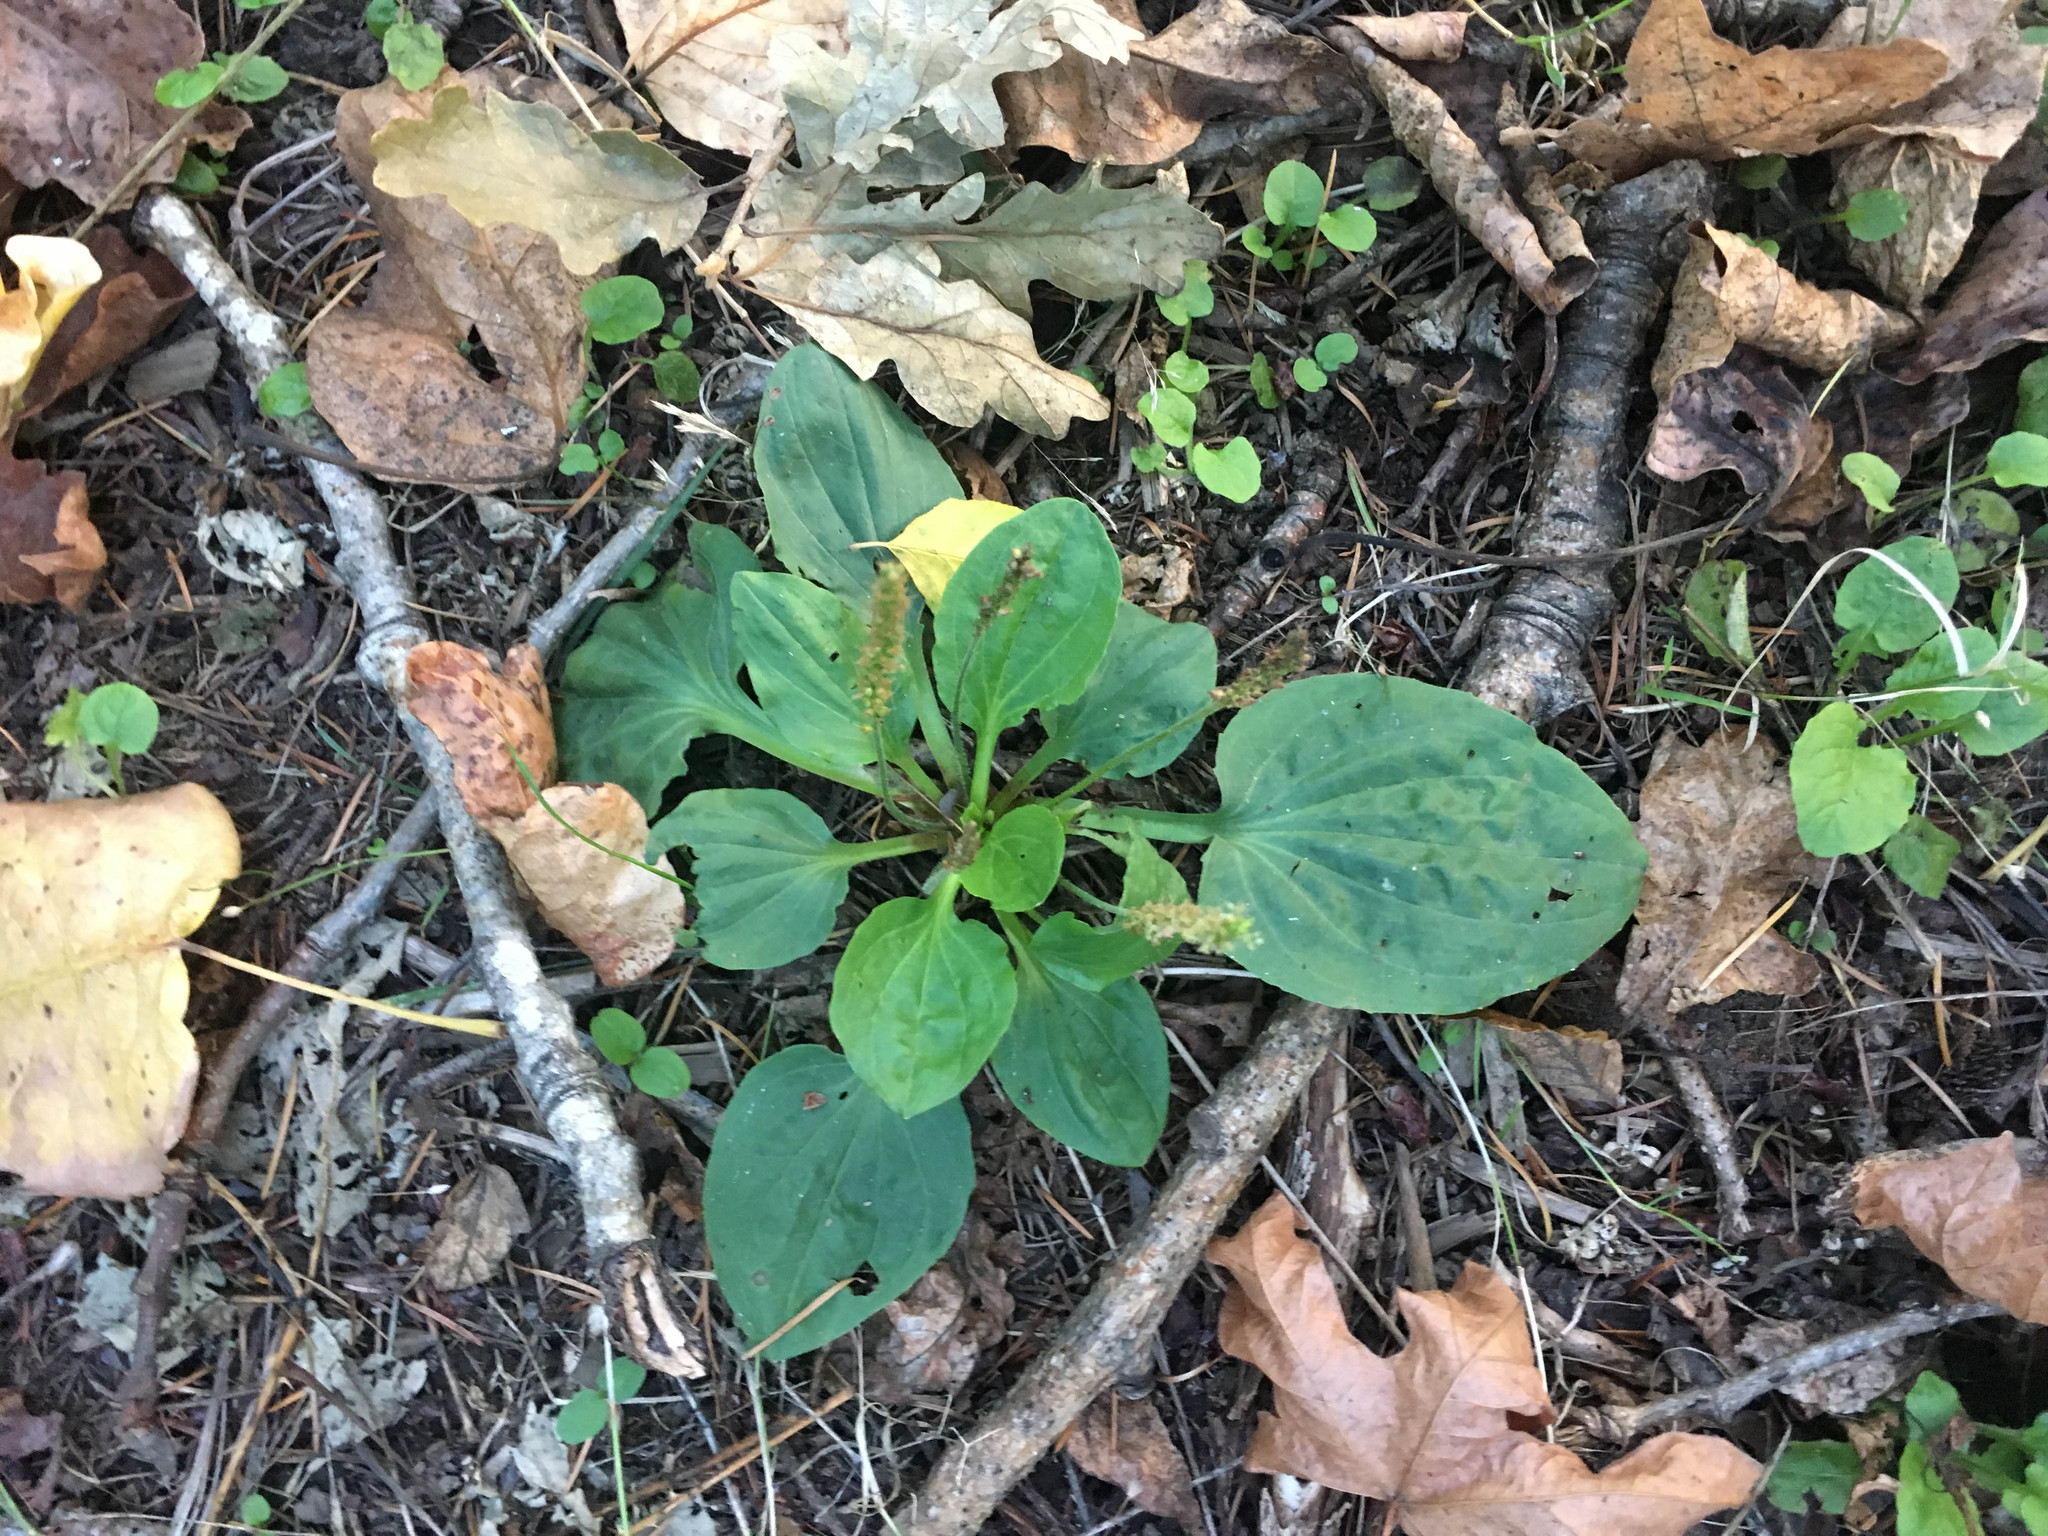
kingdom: Plantae
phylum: Tracheophyta
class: Magnoliopsida
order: Lamiales
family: Plantaginaceae
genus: Plantago
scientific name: Plantago major
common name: Common plantain
